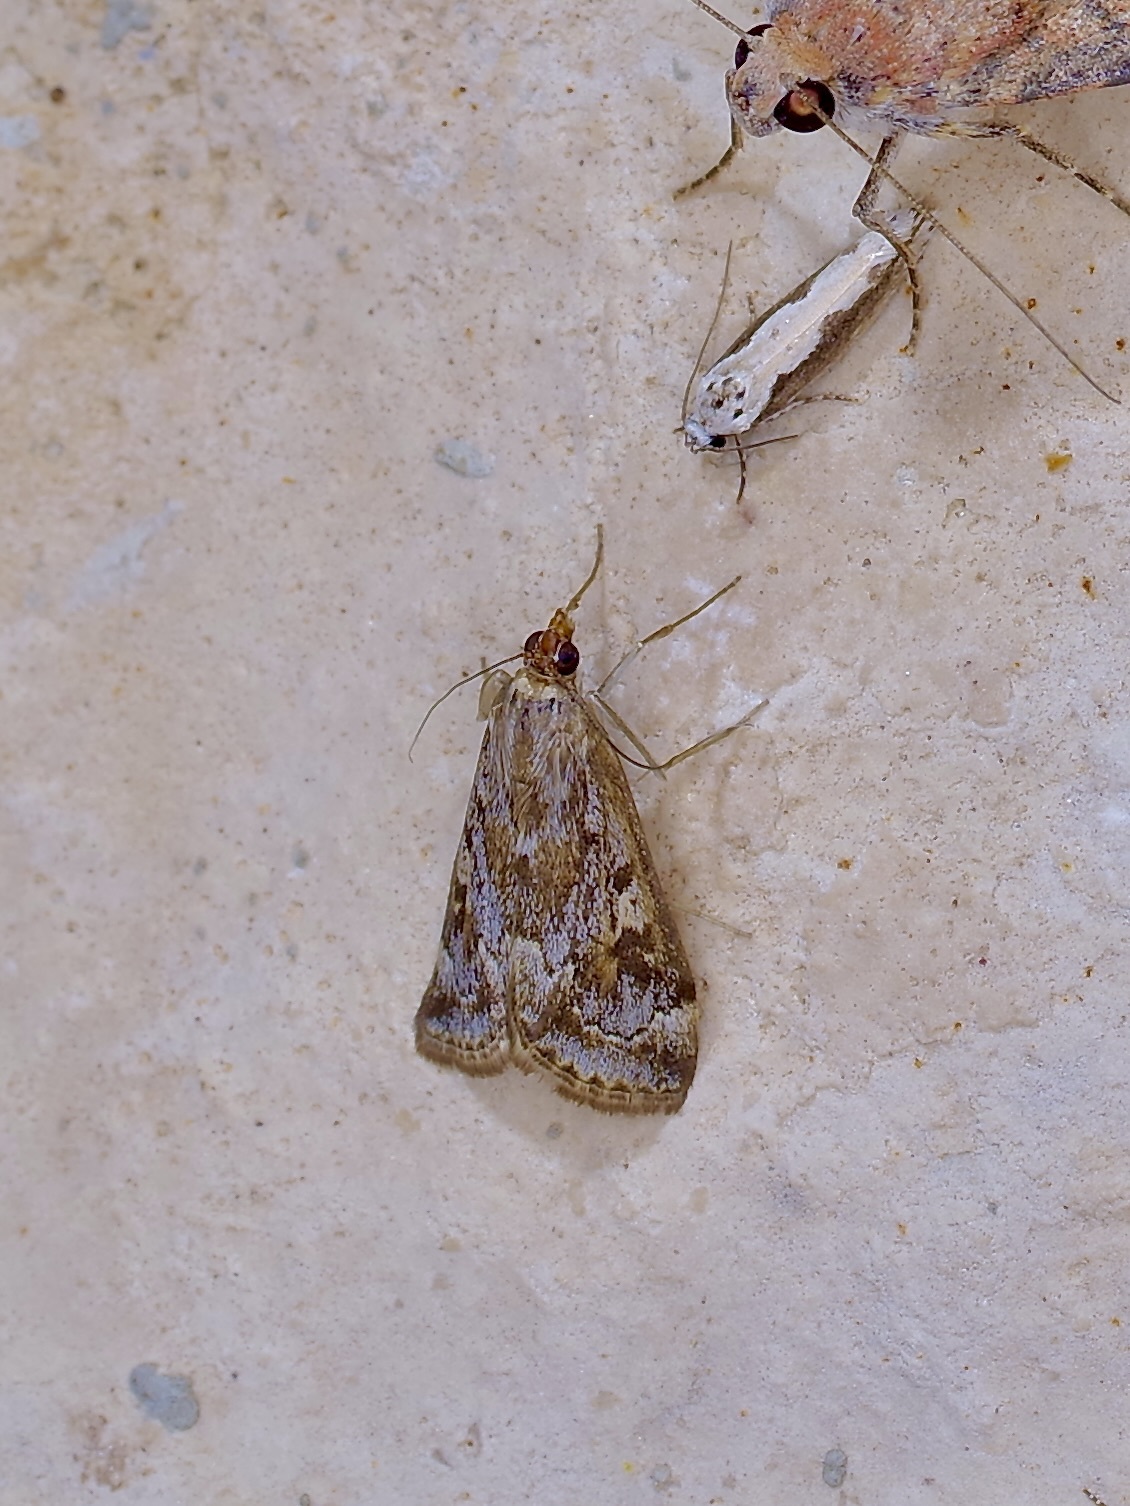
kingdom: Animalia
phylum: Arthropoda
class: Insecta
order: Lepidoptera
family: Crambidae
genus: Loxostege
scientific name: Loxostege allectalis
